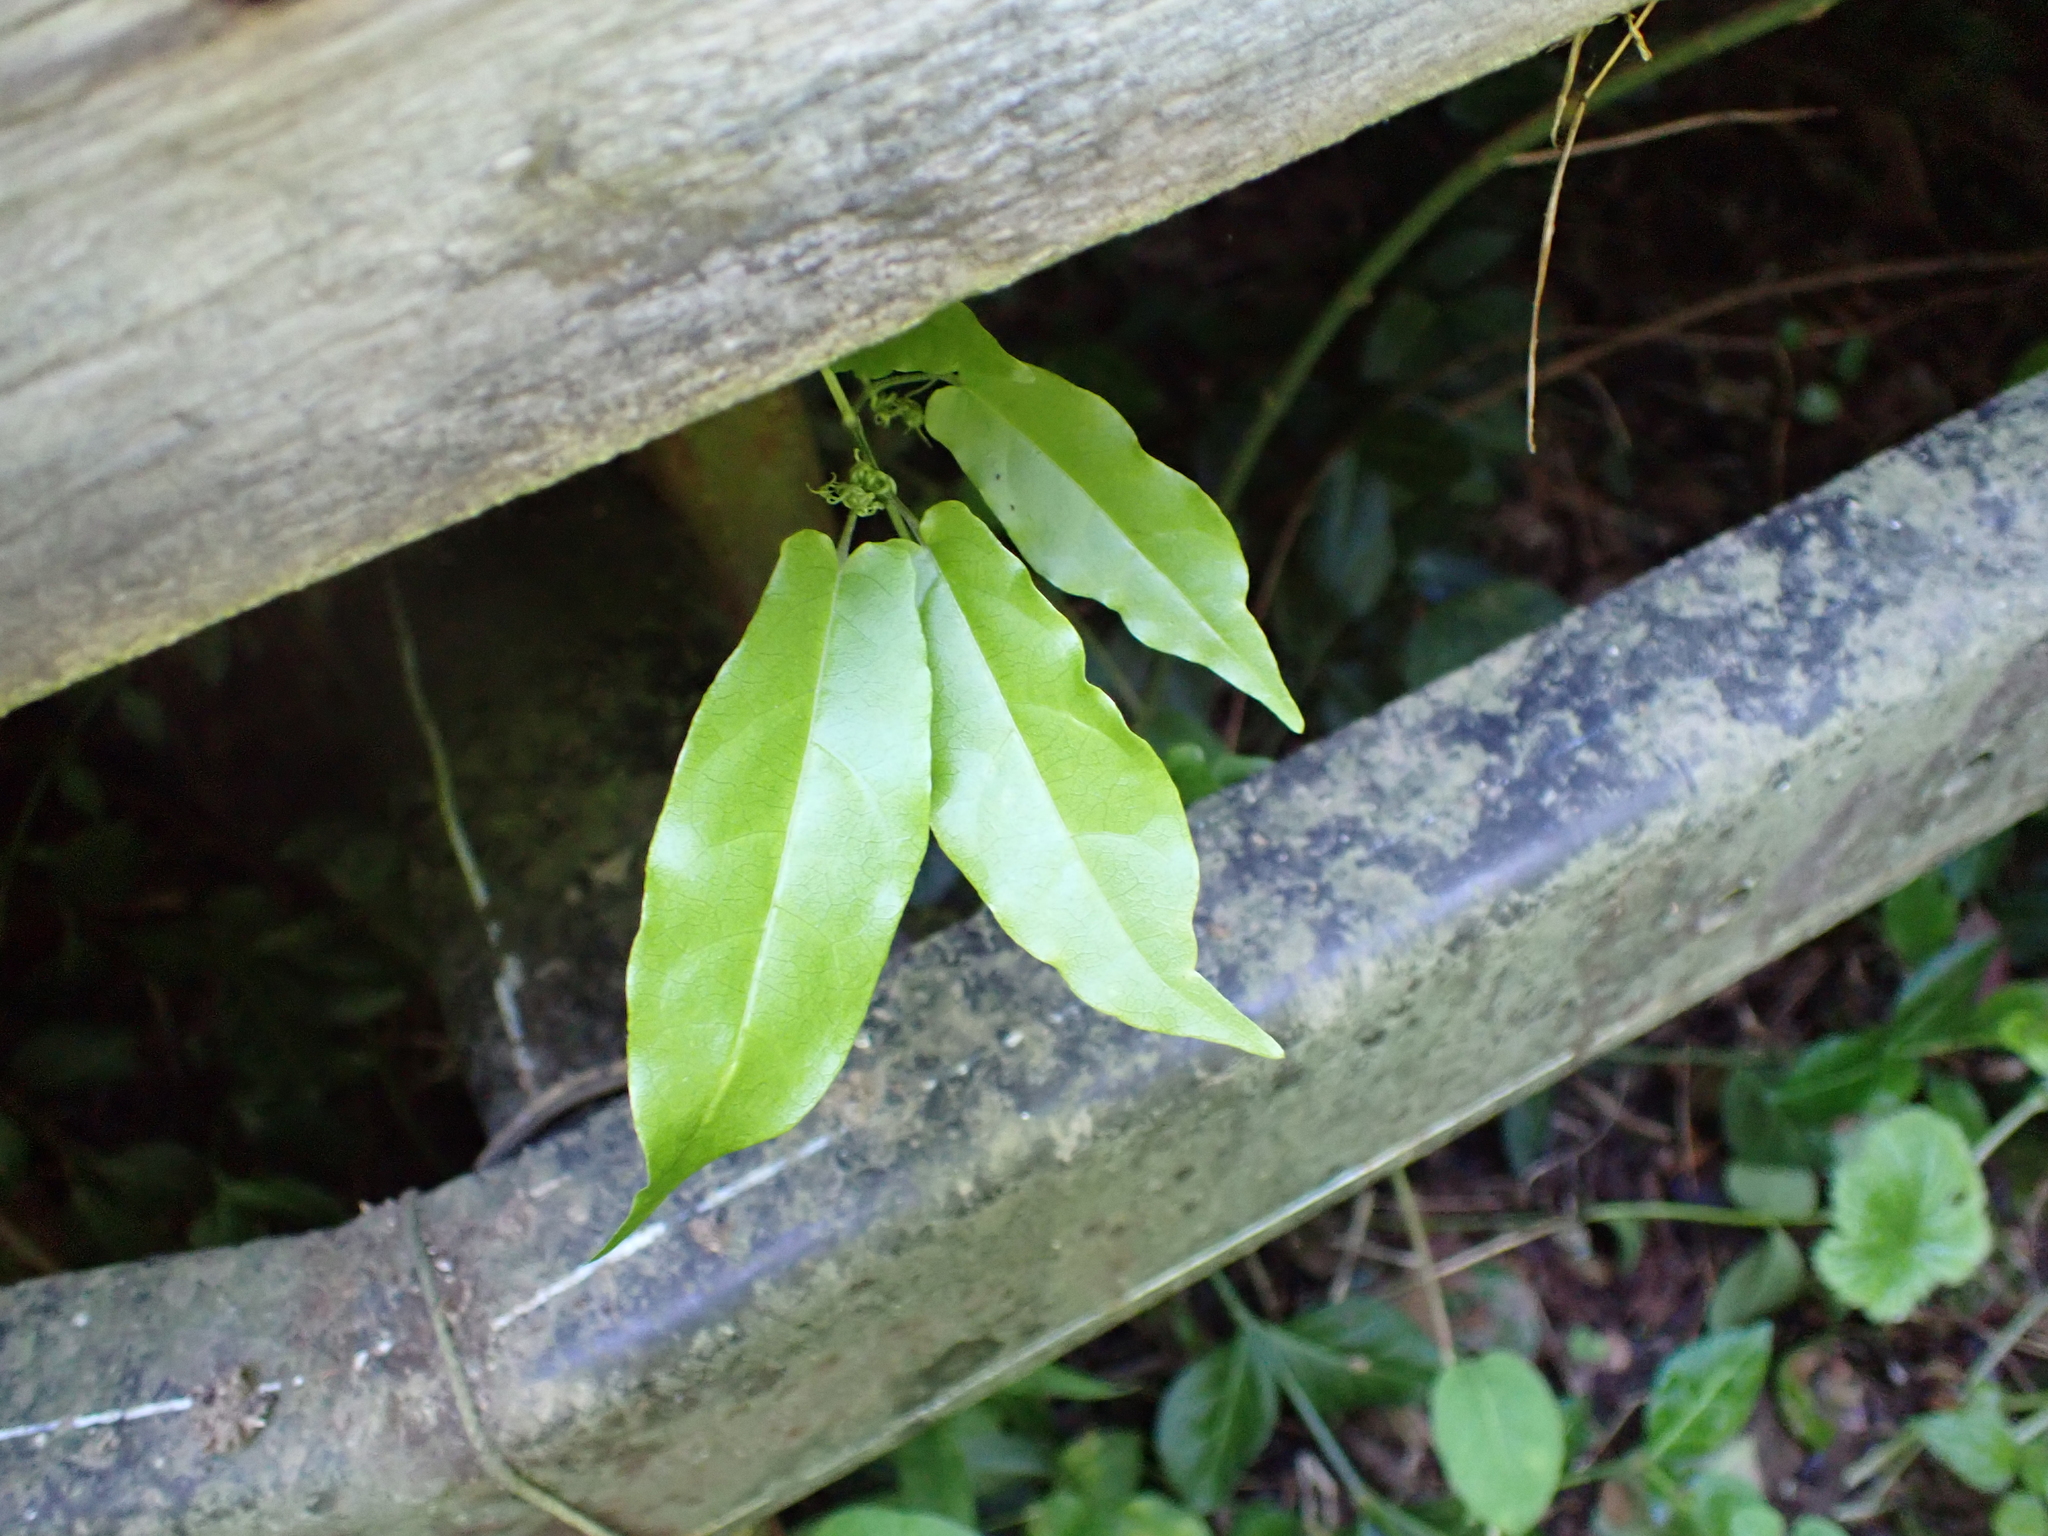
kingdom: Plantae
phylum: Tracheophyta
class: Magnoliopsida
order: Lamiales
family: Bignoniaceae
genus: Bignonia
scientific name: Bignonia capreolata
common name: Crossvine
